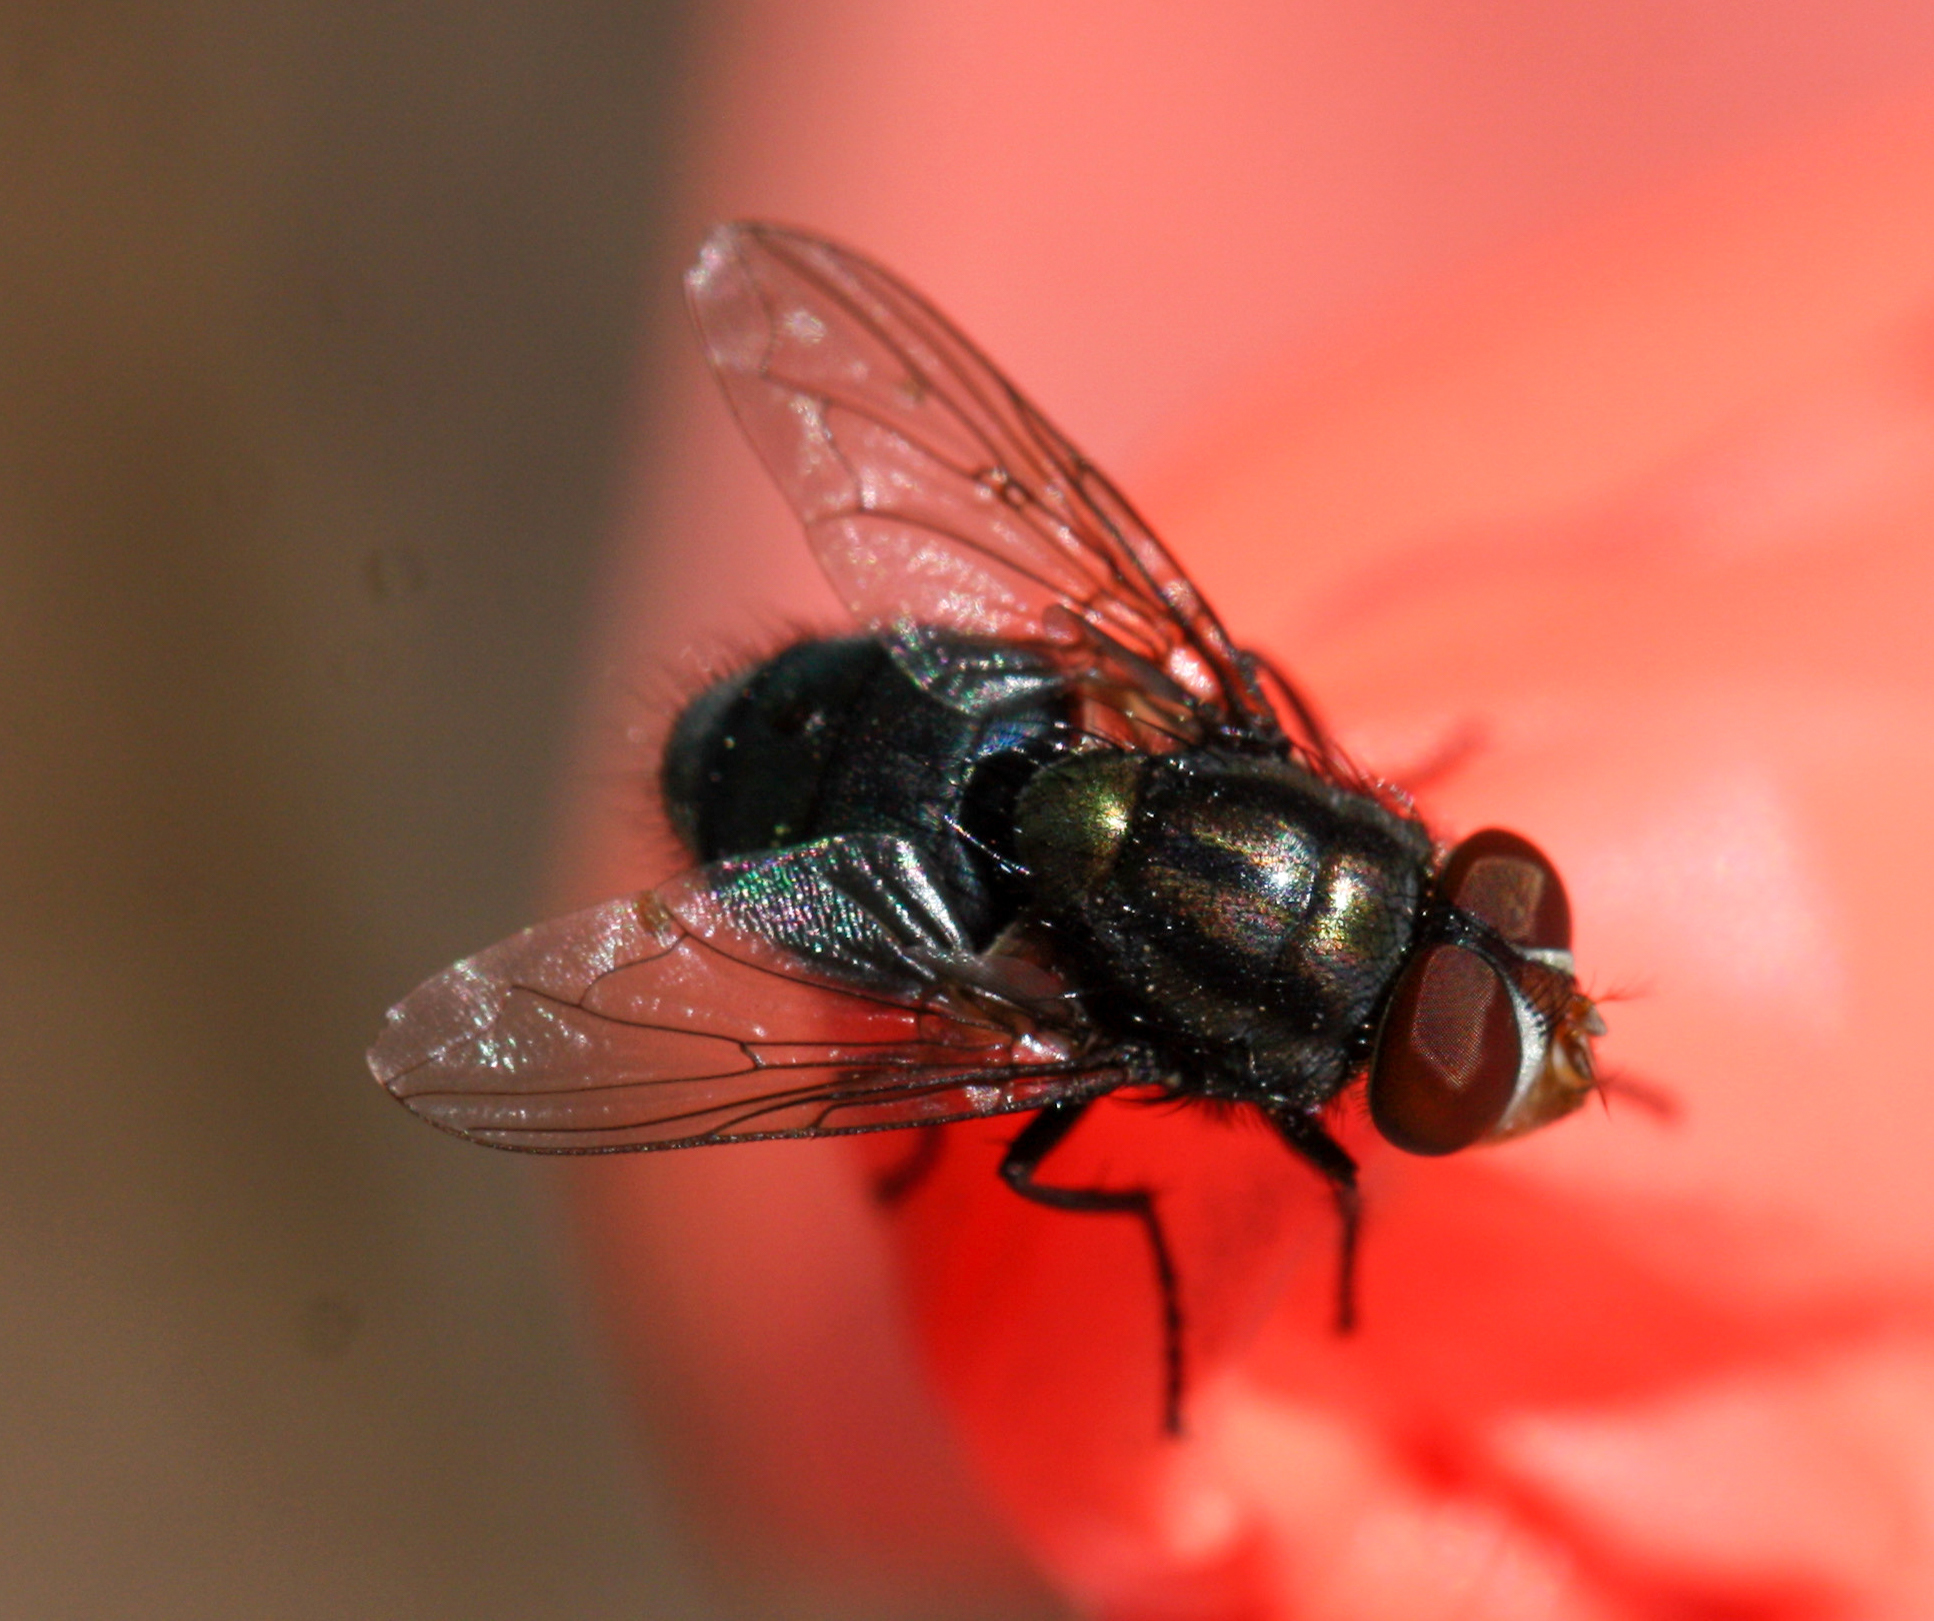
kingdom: Animalia
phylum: Arthropoda
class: Insecta
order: Diptera
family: Calliphoridae
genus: Cochliomyia
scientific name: Cochliomyia macellaria
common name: Secondary screwworm
